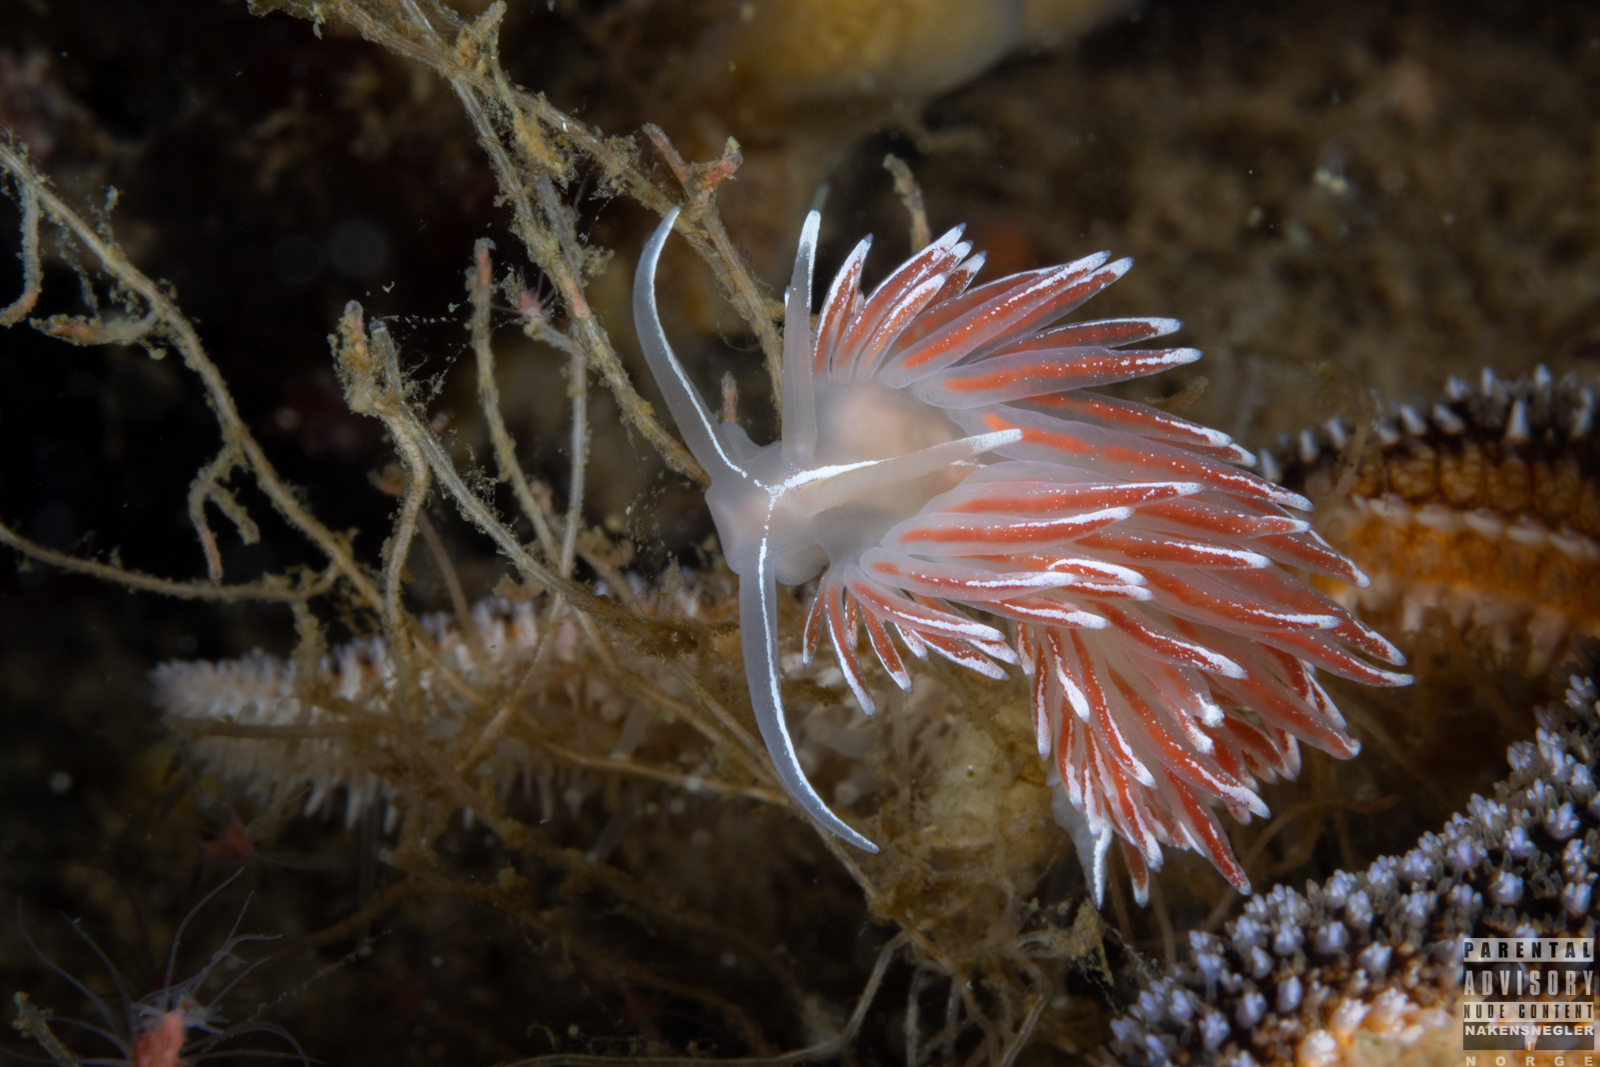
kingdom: Animalia
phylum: Mollusca
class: Gastropoda
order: Nudibranchia
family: Coryphellidae
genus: Coryphella
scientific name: Coryphella lineata
